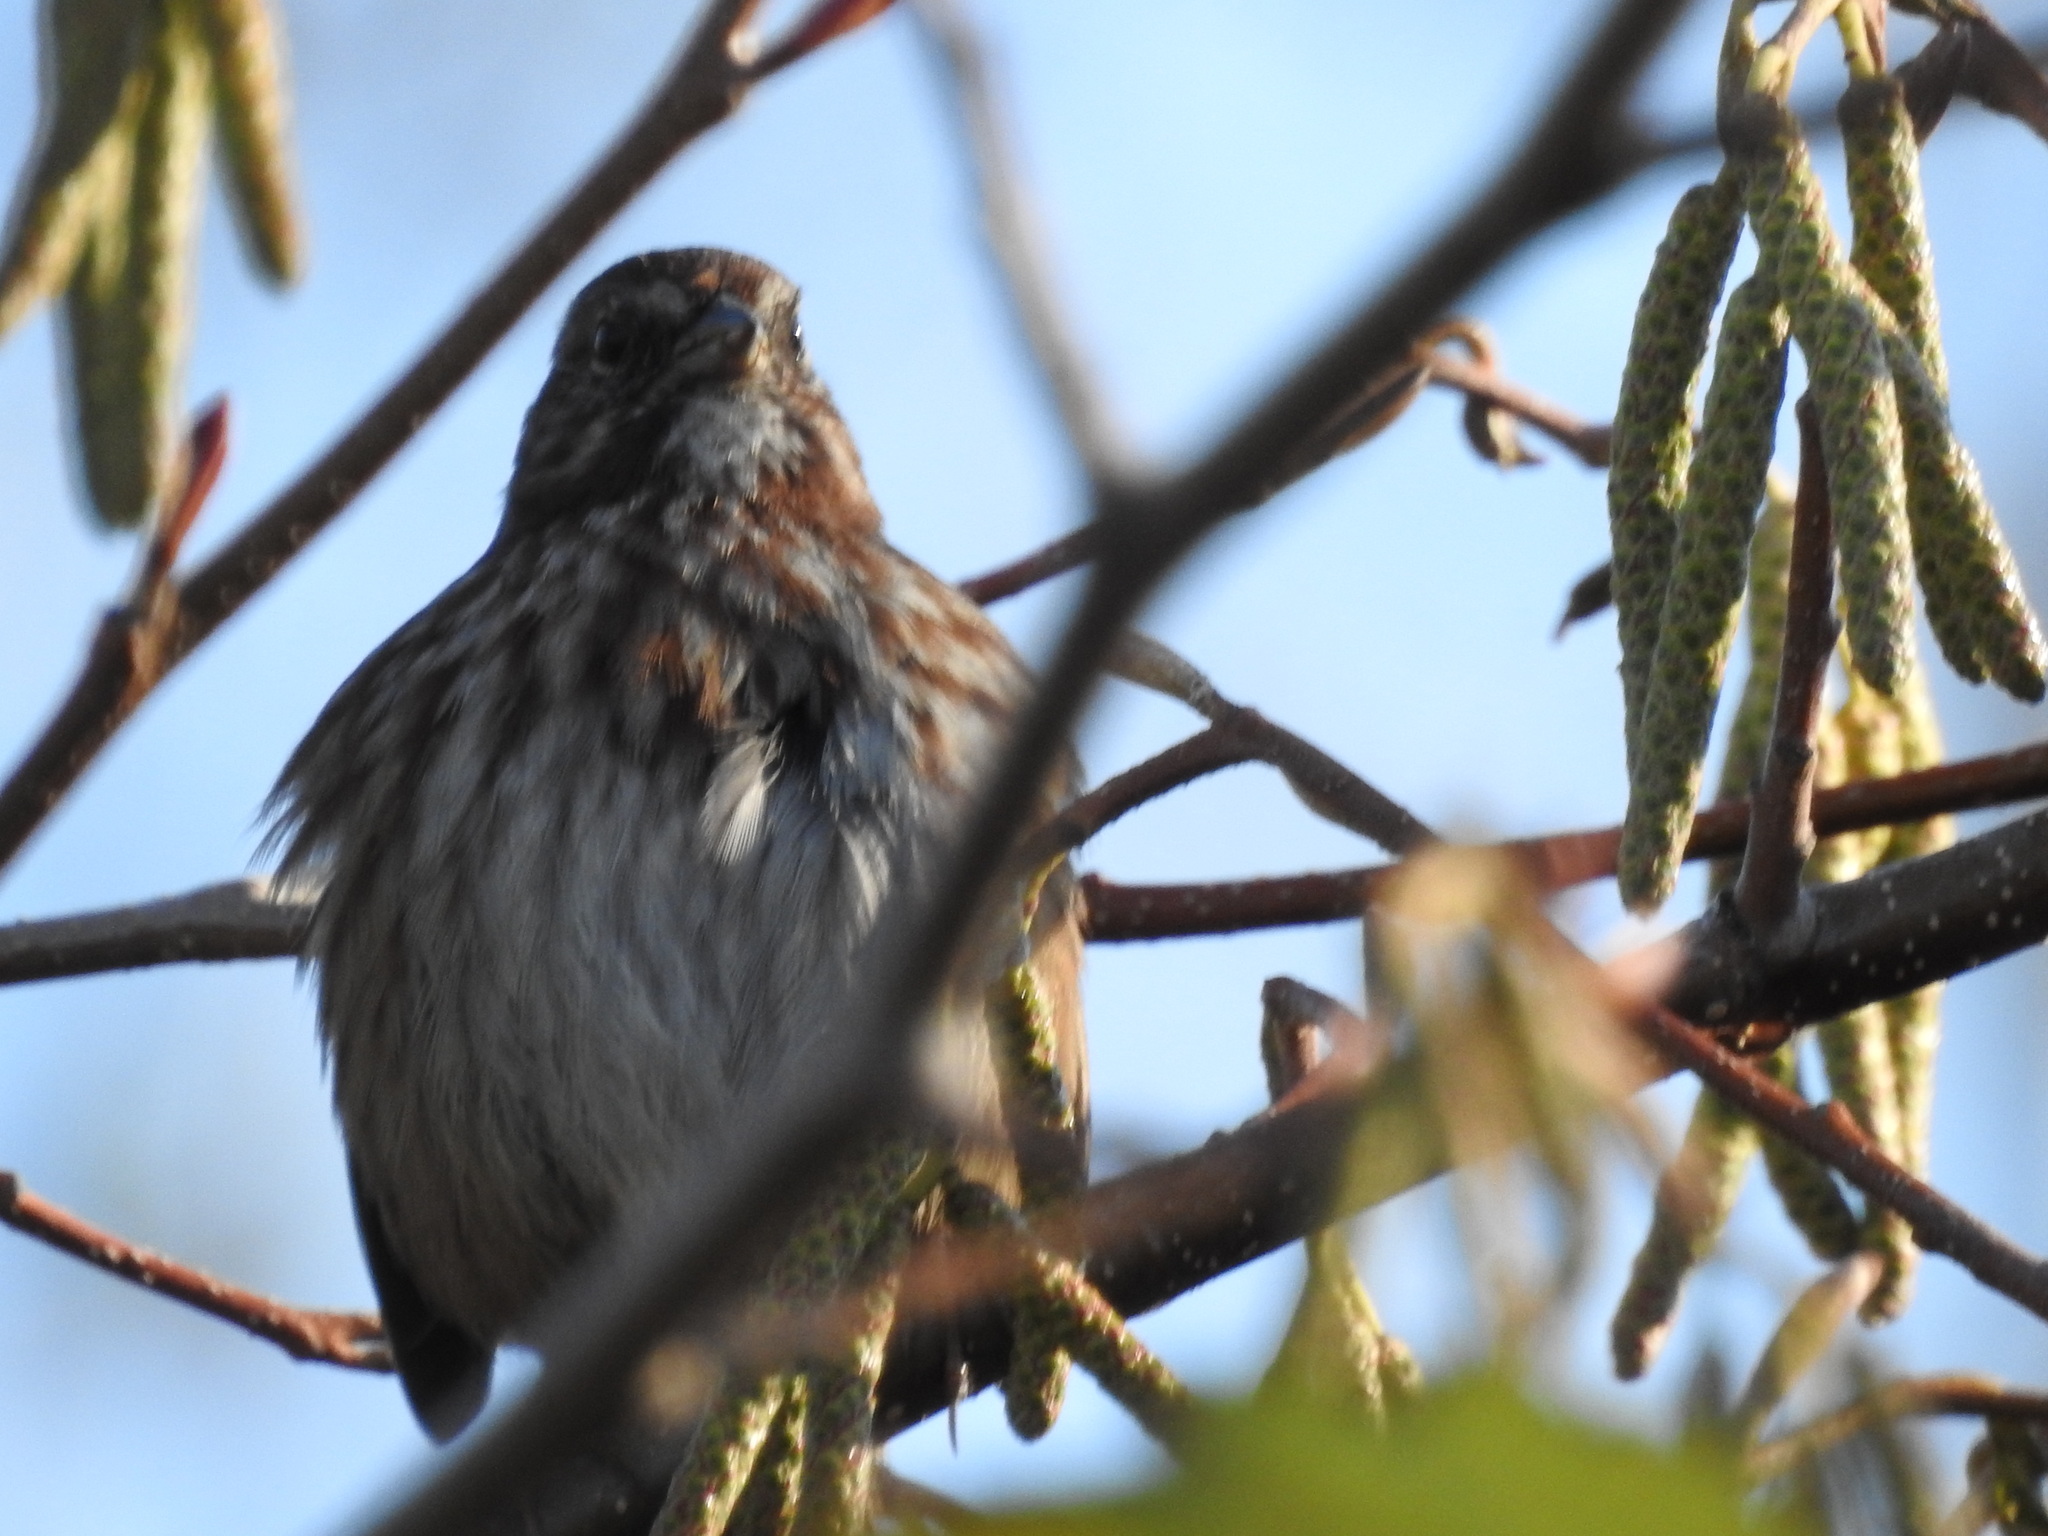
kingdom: Animalia
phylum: Chordata
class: Aves
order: Passeriformes
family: Passerellidae
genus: Melospiza
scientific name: Melospiza melodia
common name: Song sparrow
